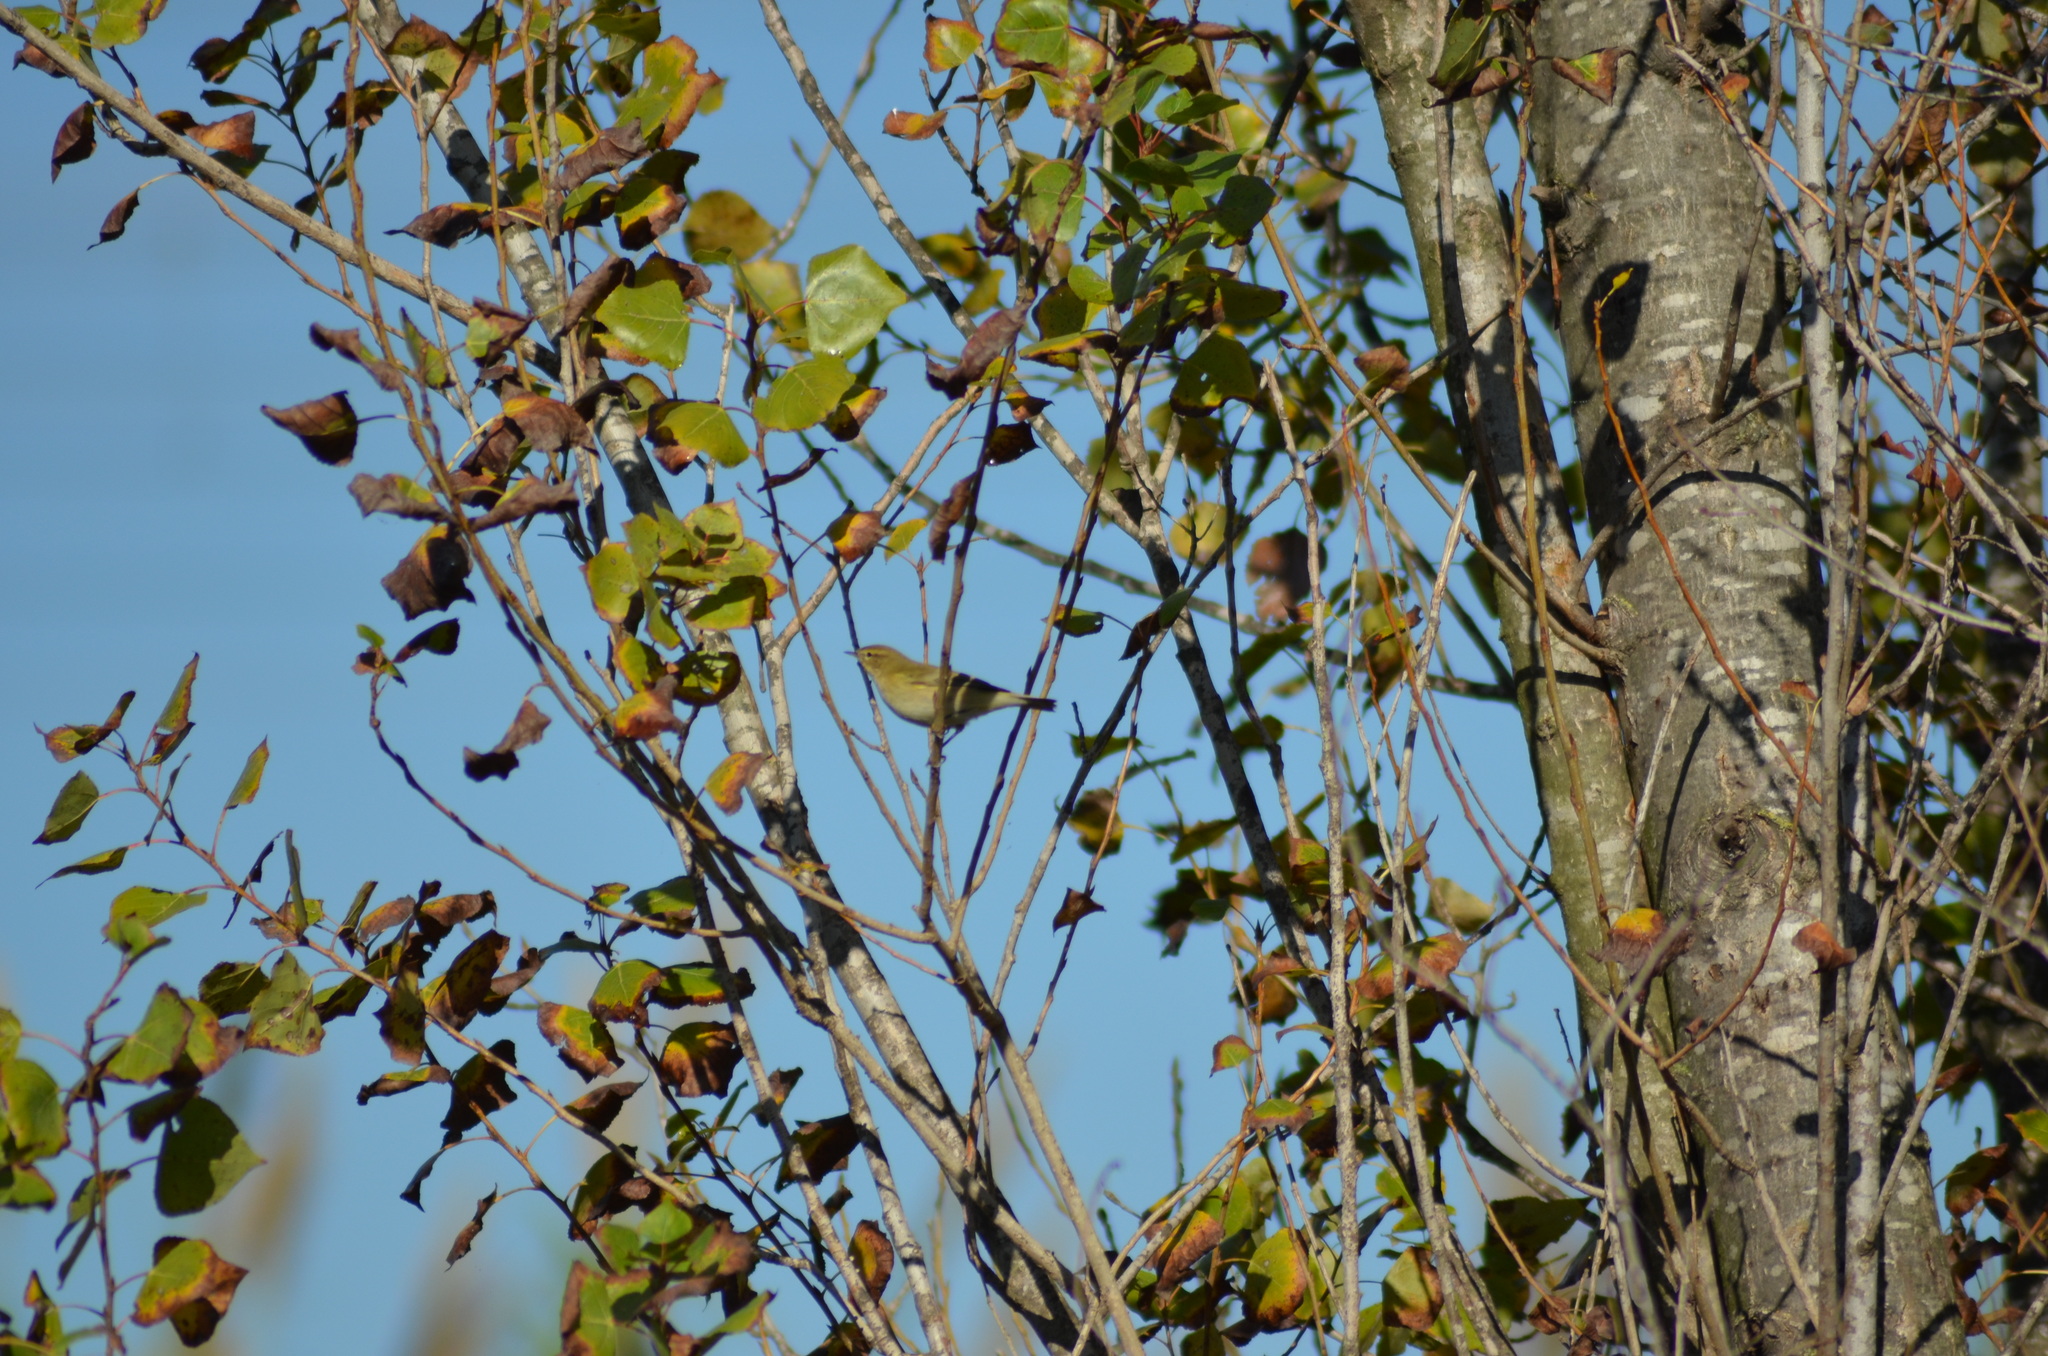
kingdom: Animalia
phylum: Chordata
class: Aves
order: Passeriformes
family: Phylloscopidae
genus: Phylloscopus
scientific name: Phylloscopus collybita
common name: Common chiffchaff
